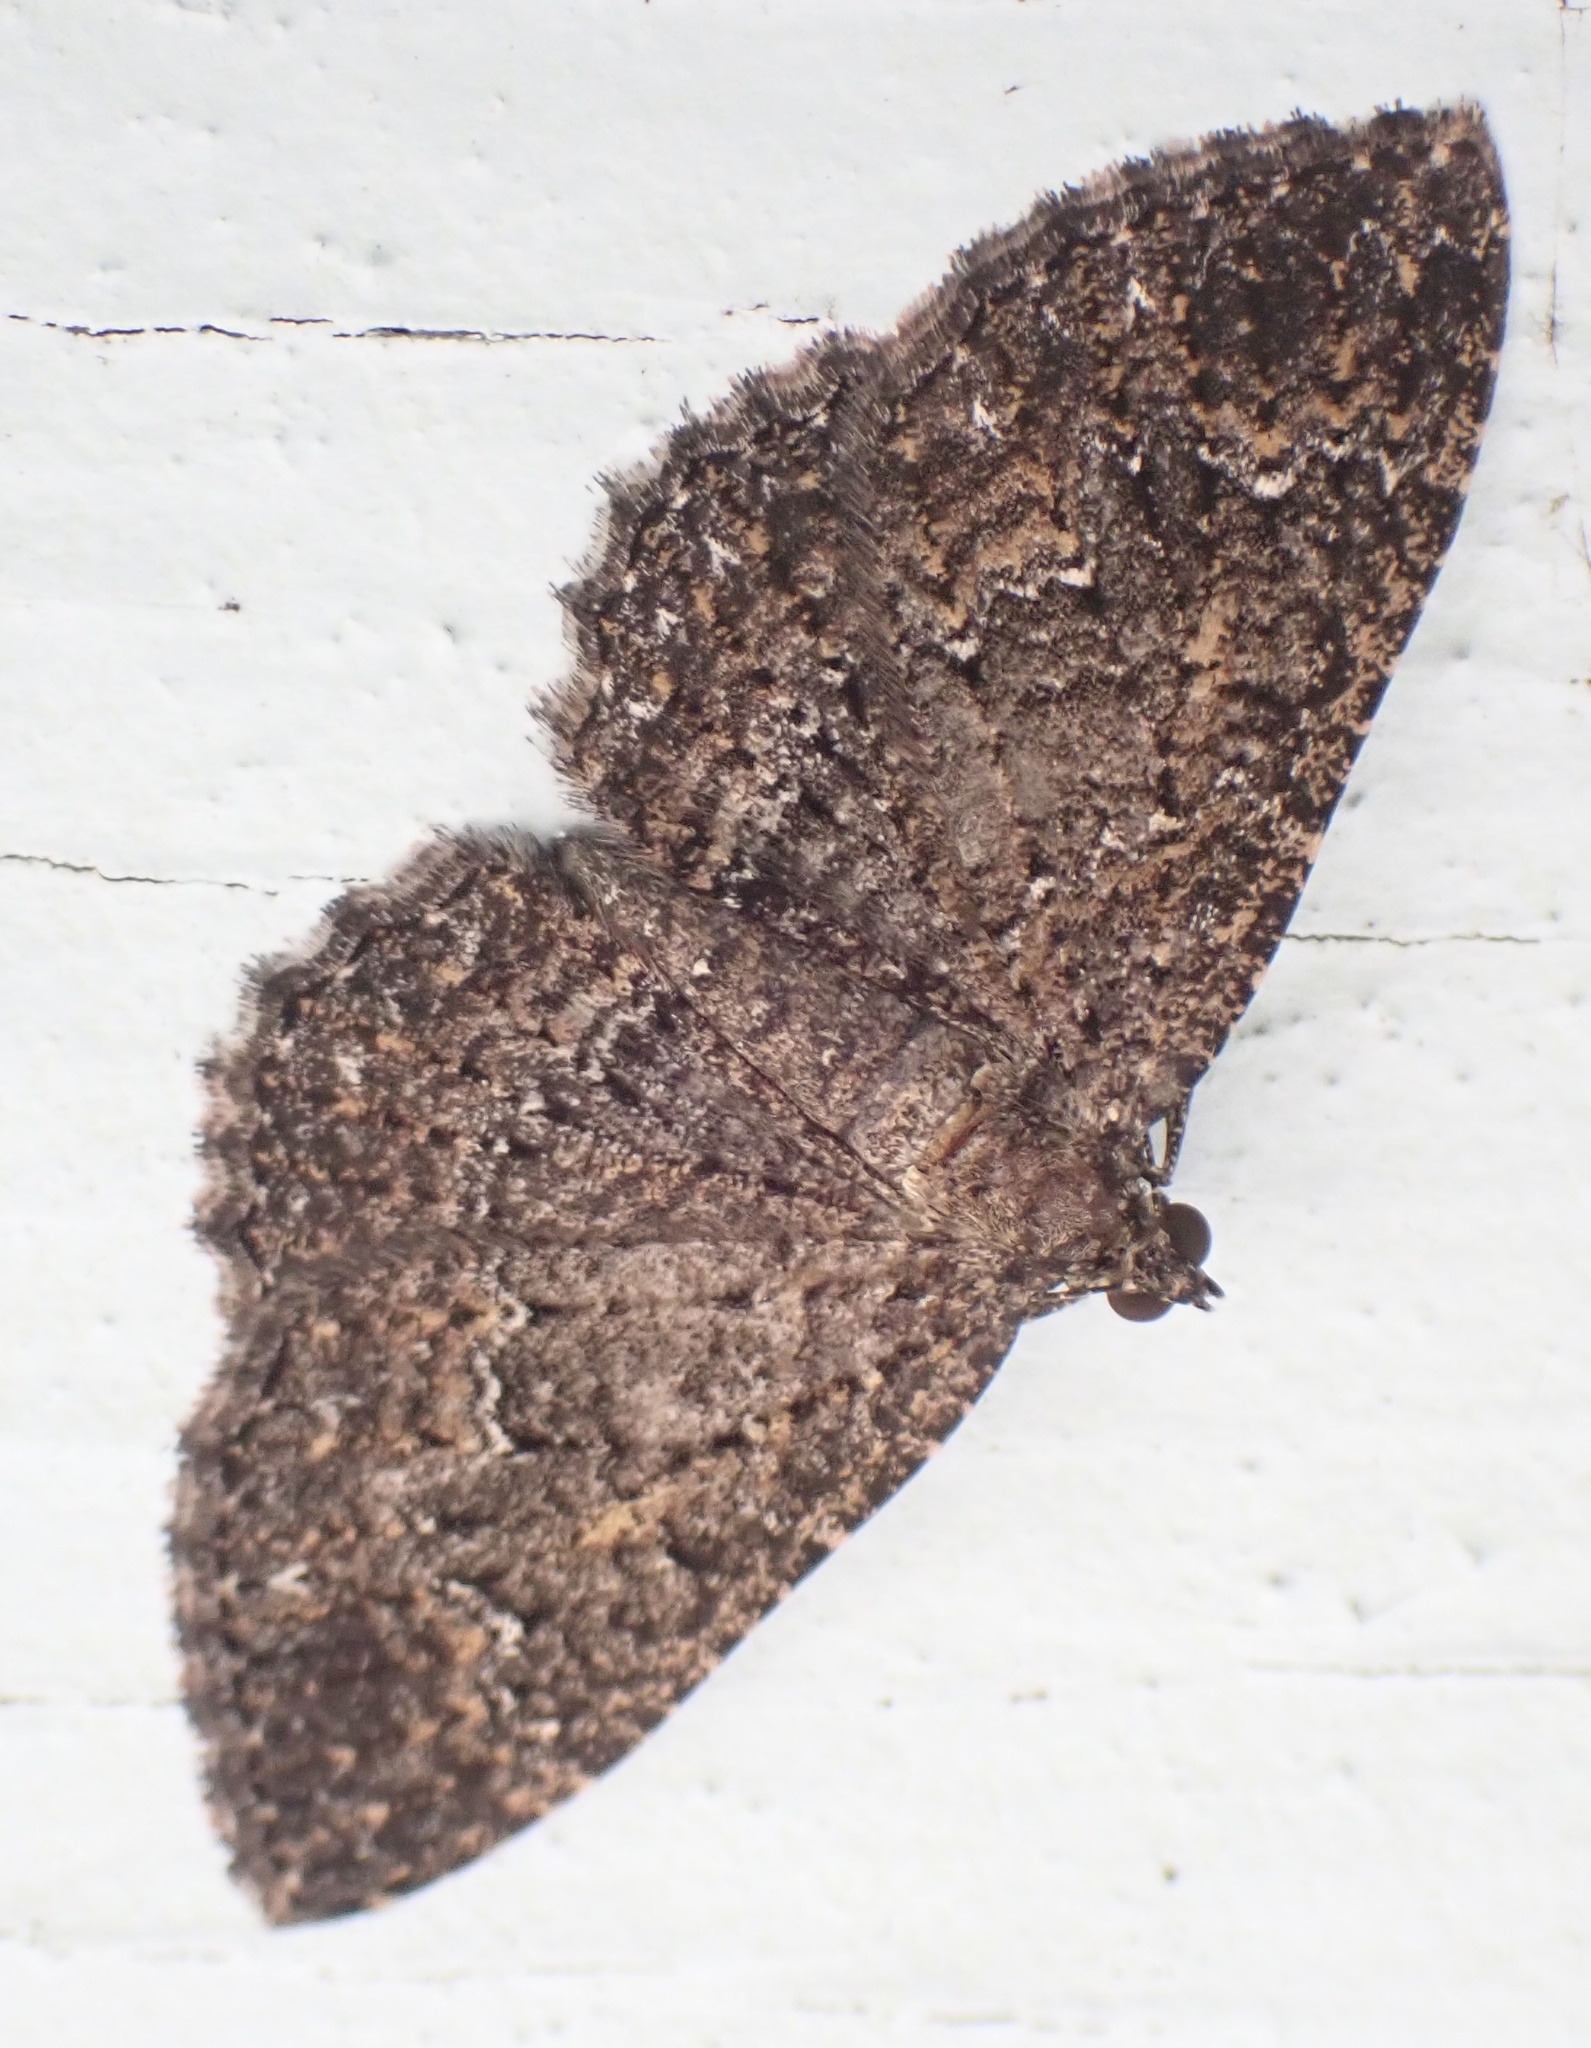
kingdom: Animalia
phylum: Arthropoda
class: Insecta
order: Lepidoptera
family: Geometridae
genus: Disclisioprocta
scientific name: Disclisioprocta stellata
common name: Somber carpet
